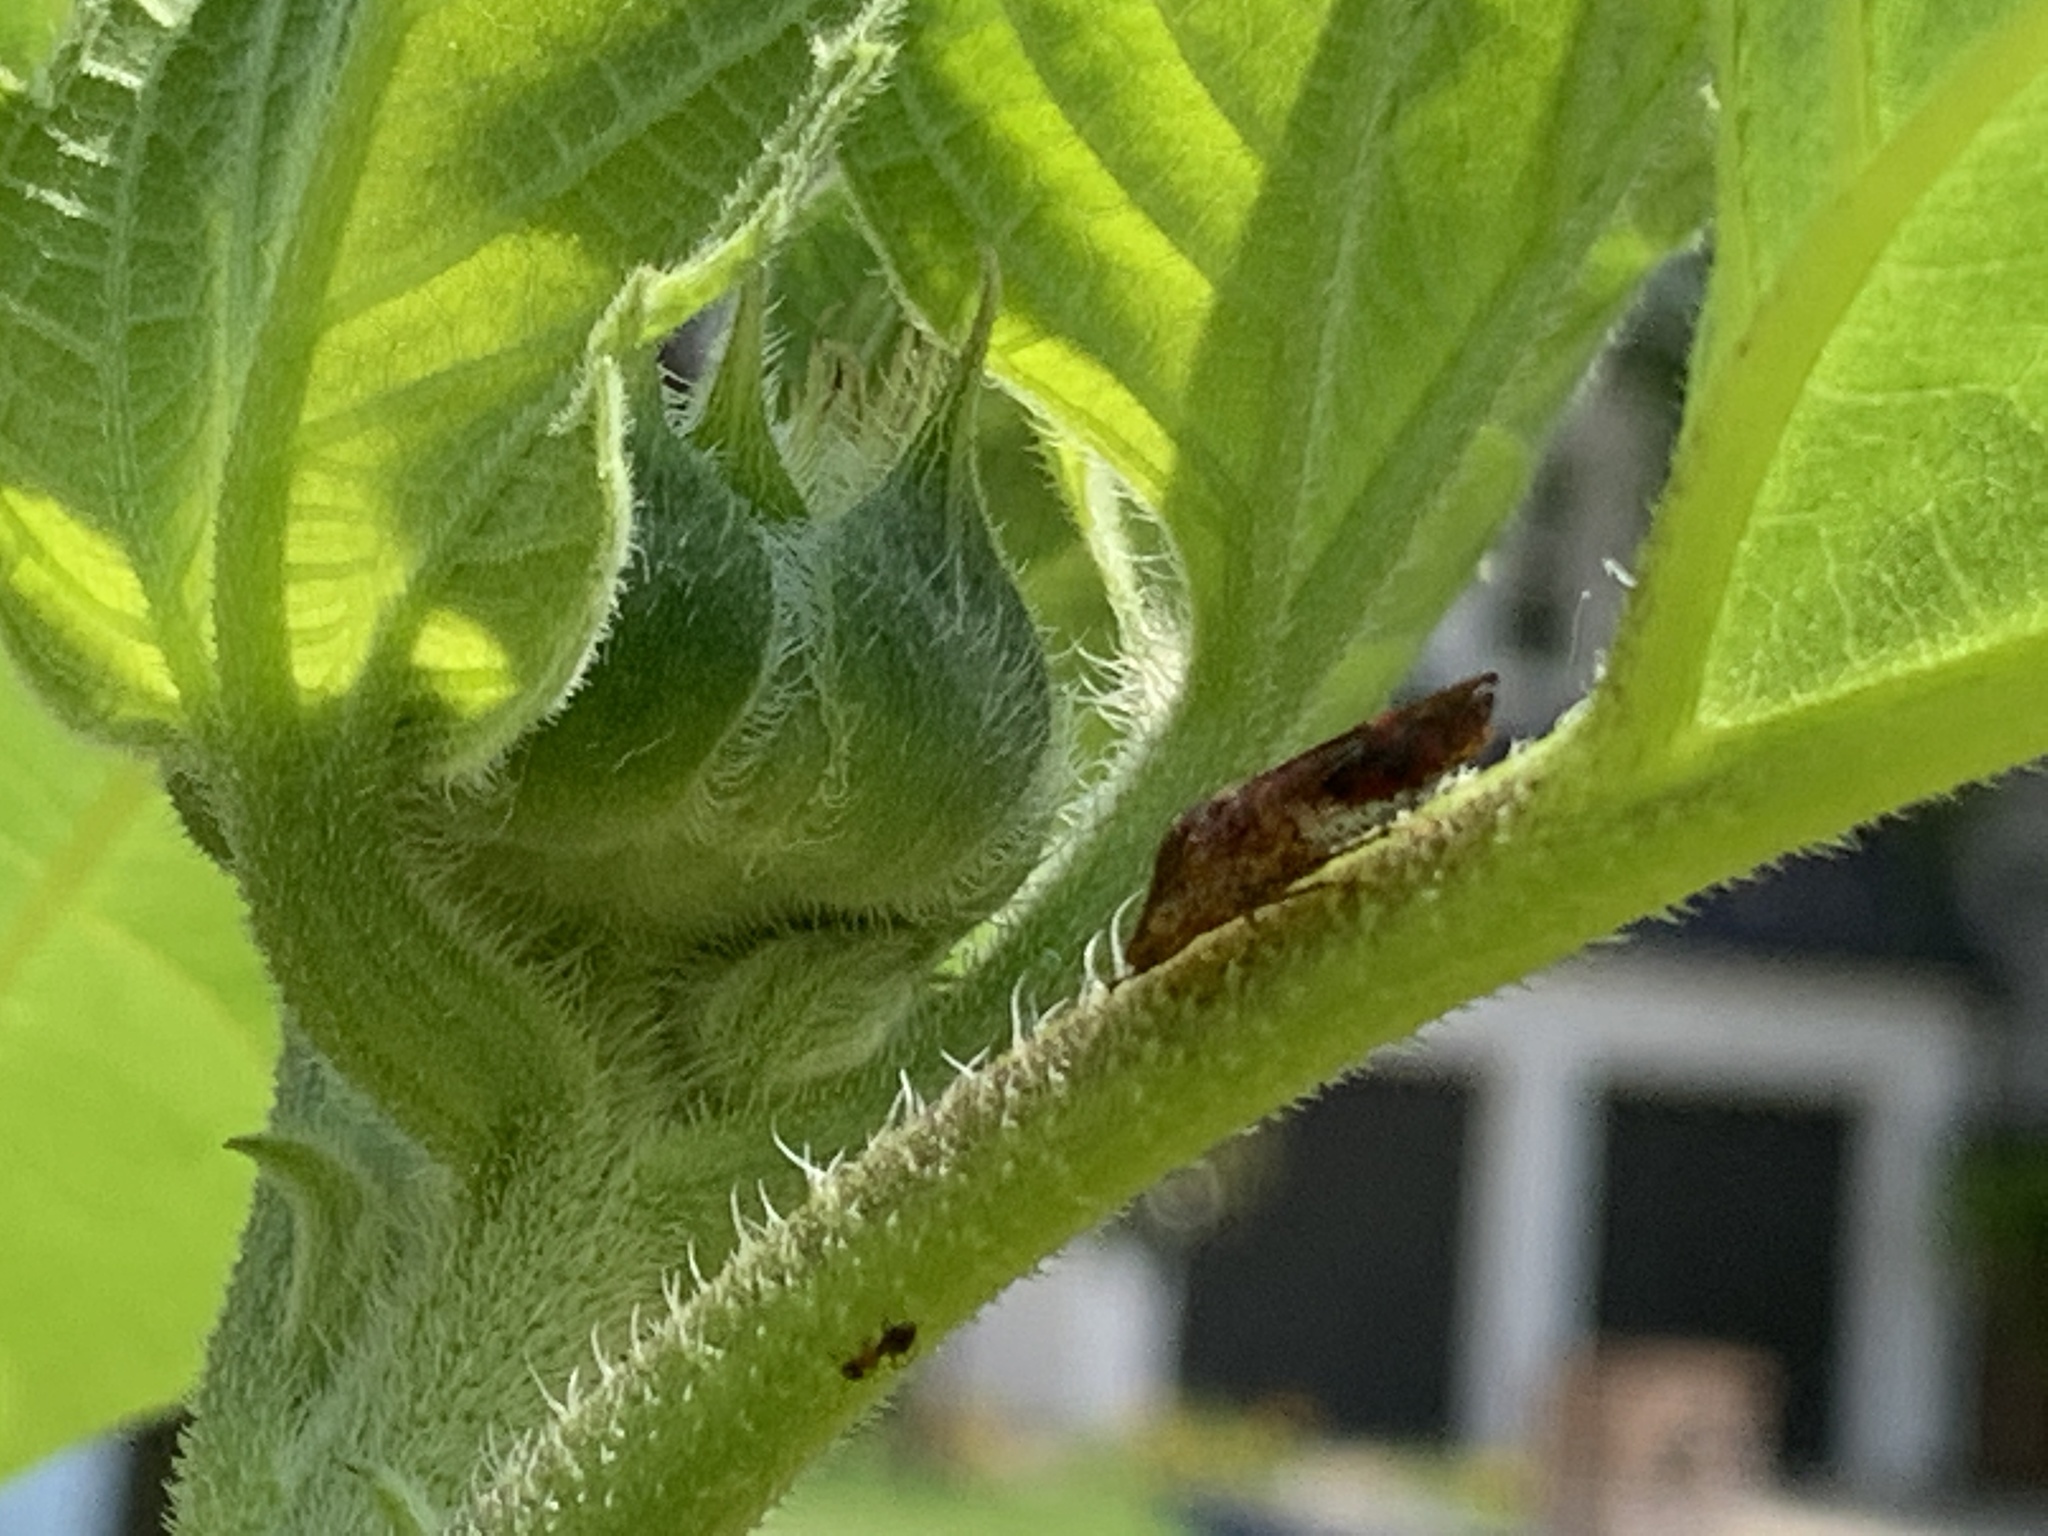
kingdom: Animalia
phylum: Arthropoda
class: Insecta
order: Hemiptera
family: Cicadellidae
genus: Homalodisca
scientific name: Homalodisca vitripennis
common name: Glassy-winged sharpshooter
